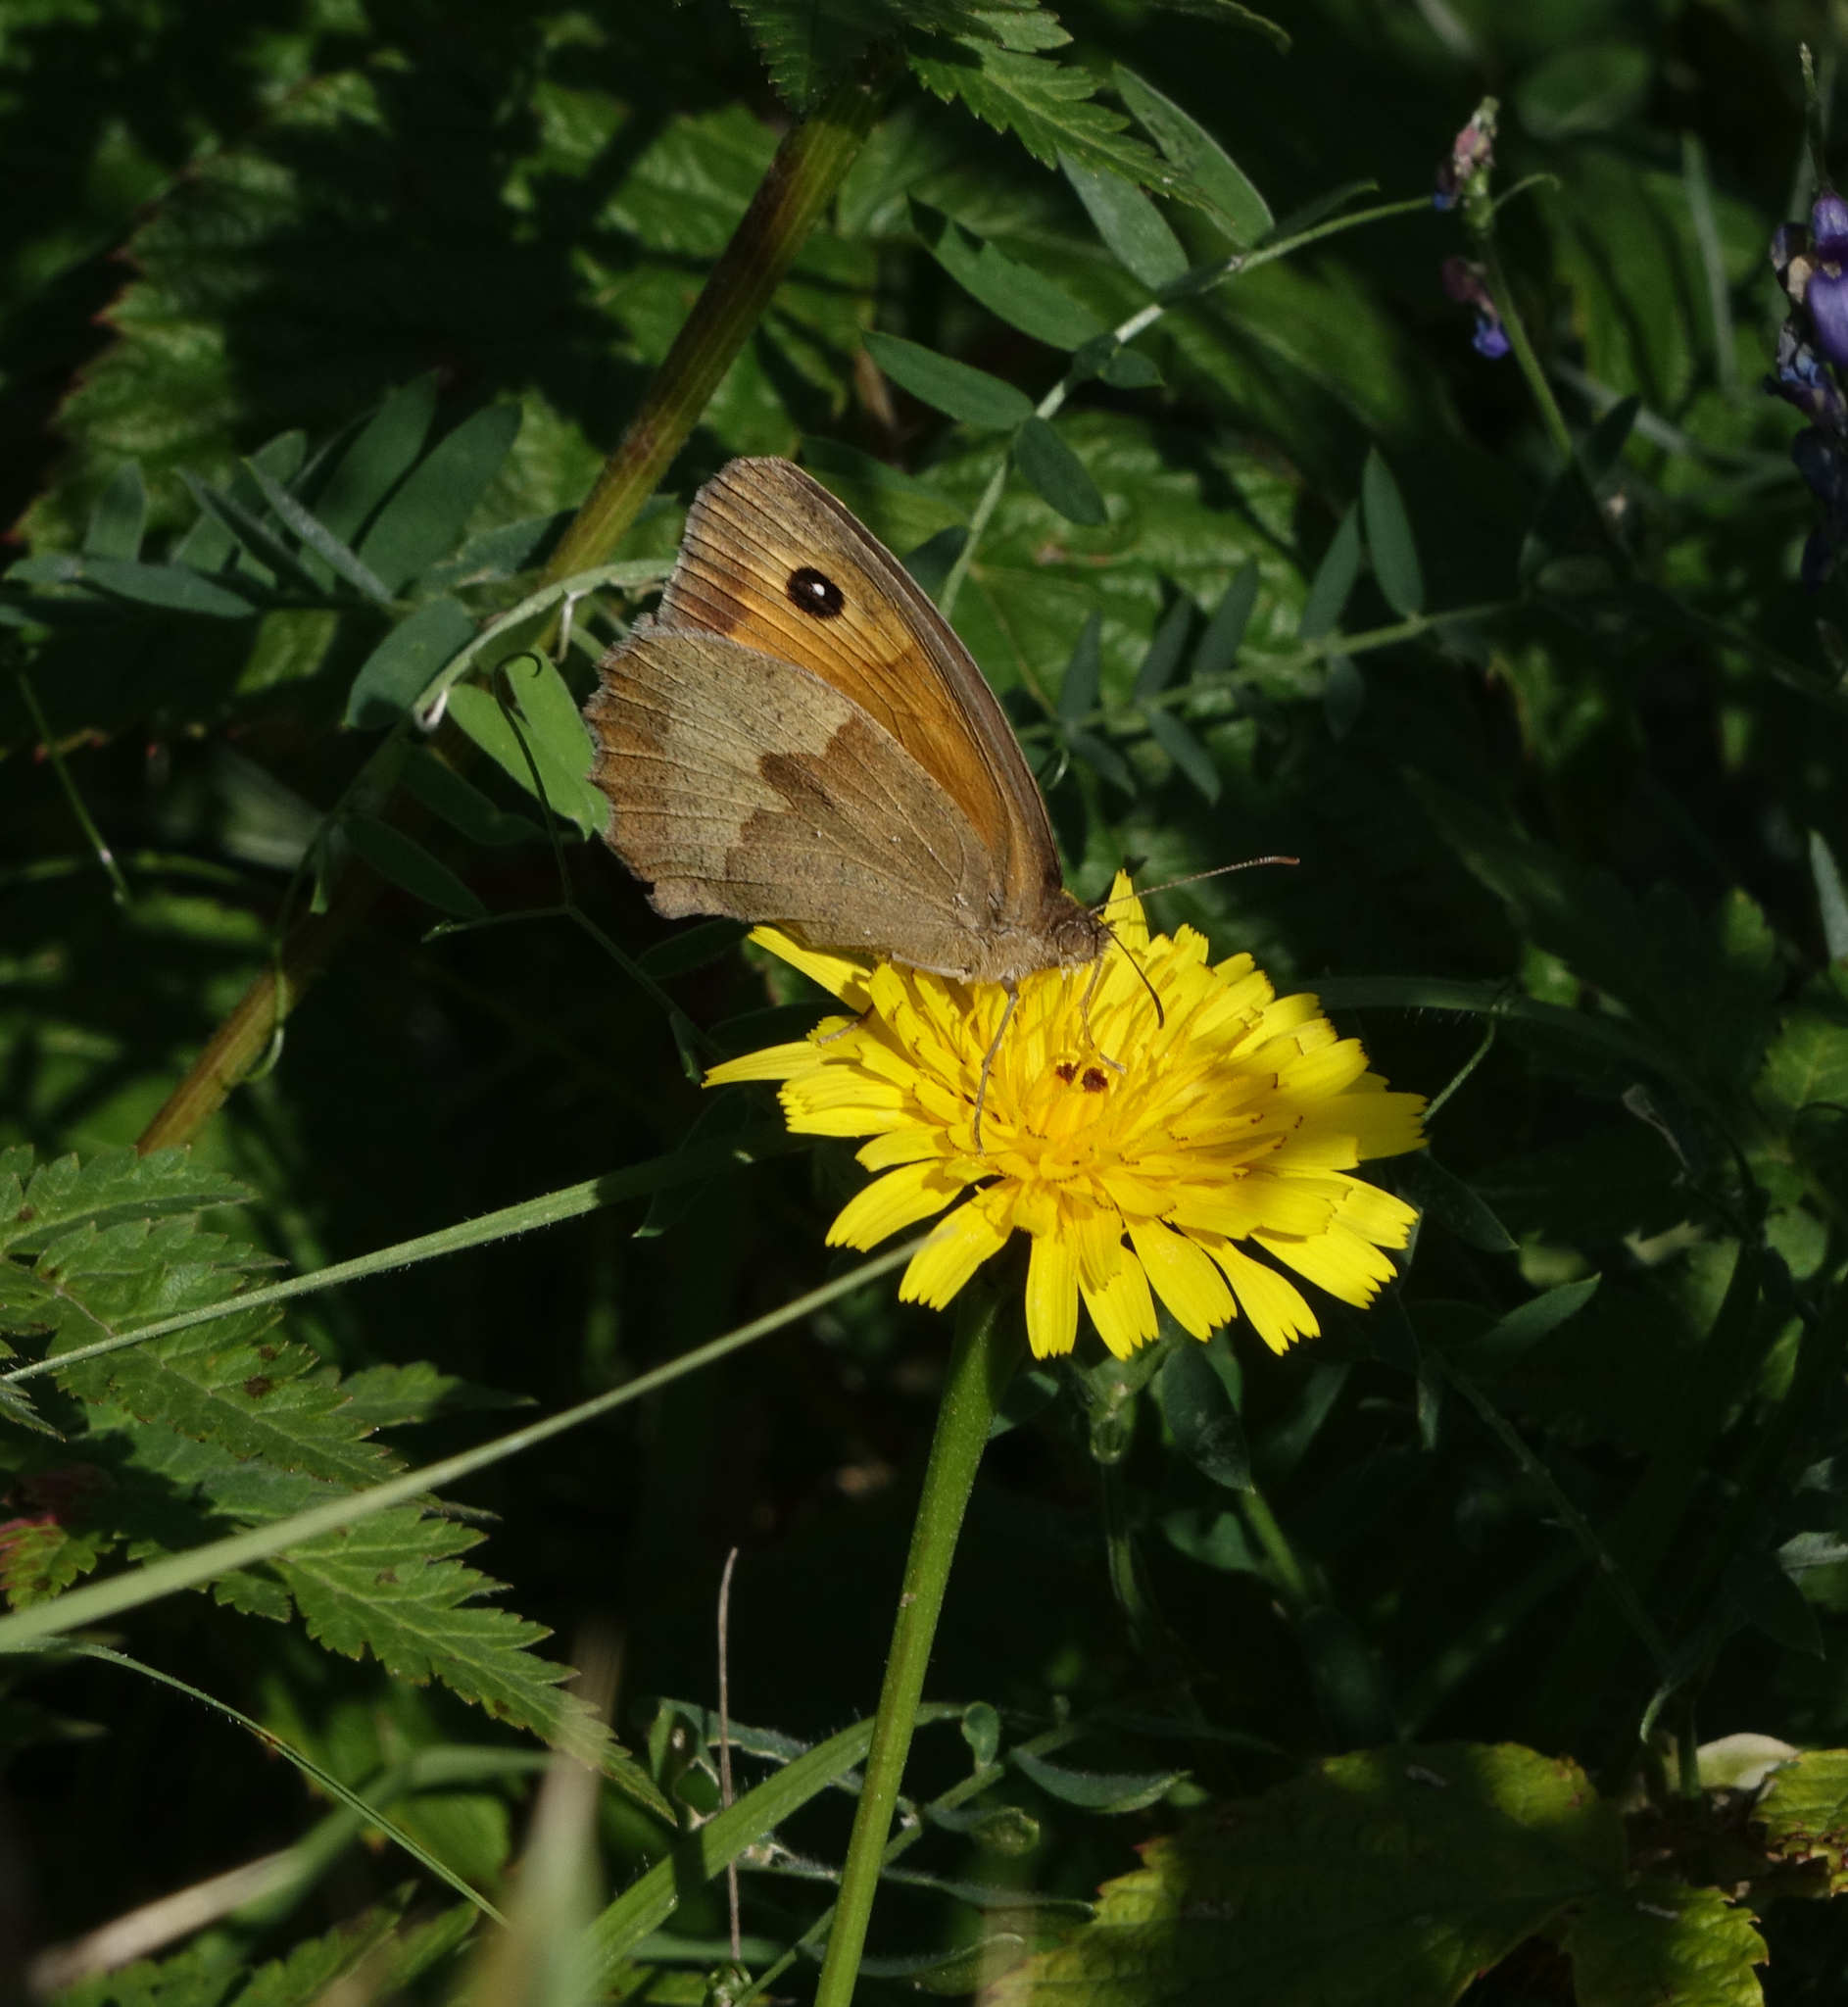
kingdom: Animalia
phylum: Arthropoda
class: Insecta
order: Lepidoptera
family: Nymphalidae
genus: Maniola
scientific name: Maniola jurtina
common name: Meadow brown
